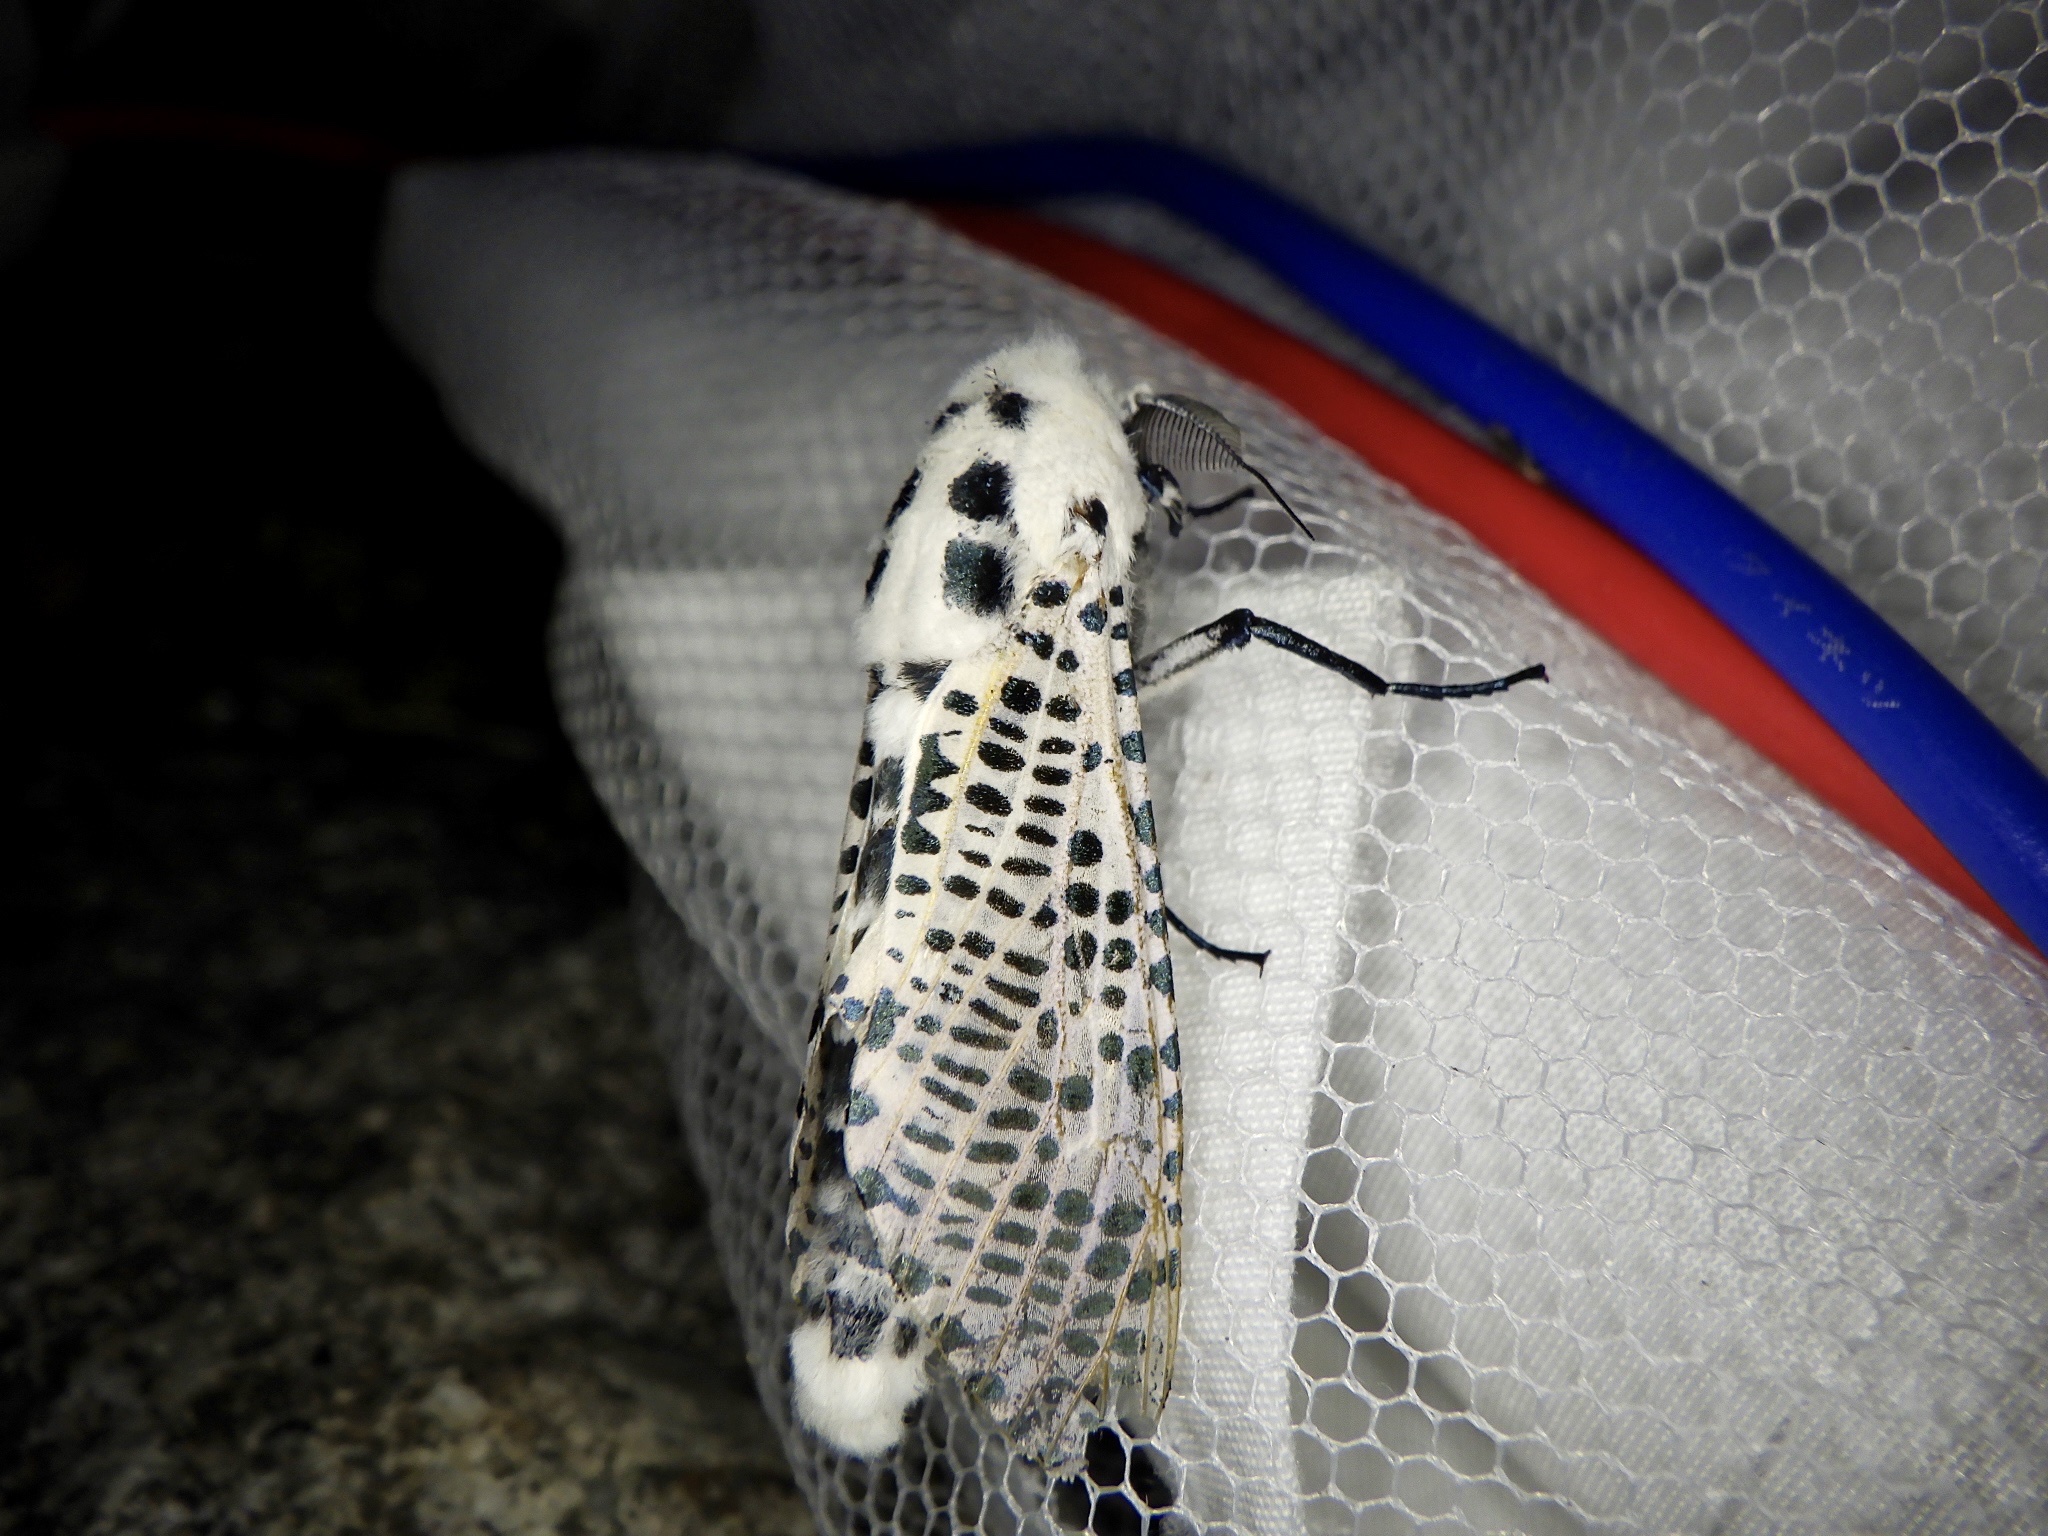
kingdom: Animalia
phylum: Arthropoda
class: Insecta
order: Lepidoptera
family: Cossidae
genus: Zeuzera
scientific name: Zeuzera multistrigata
